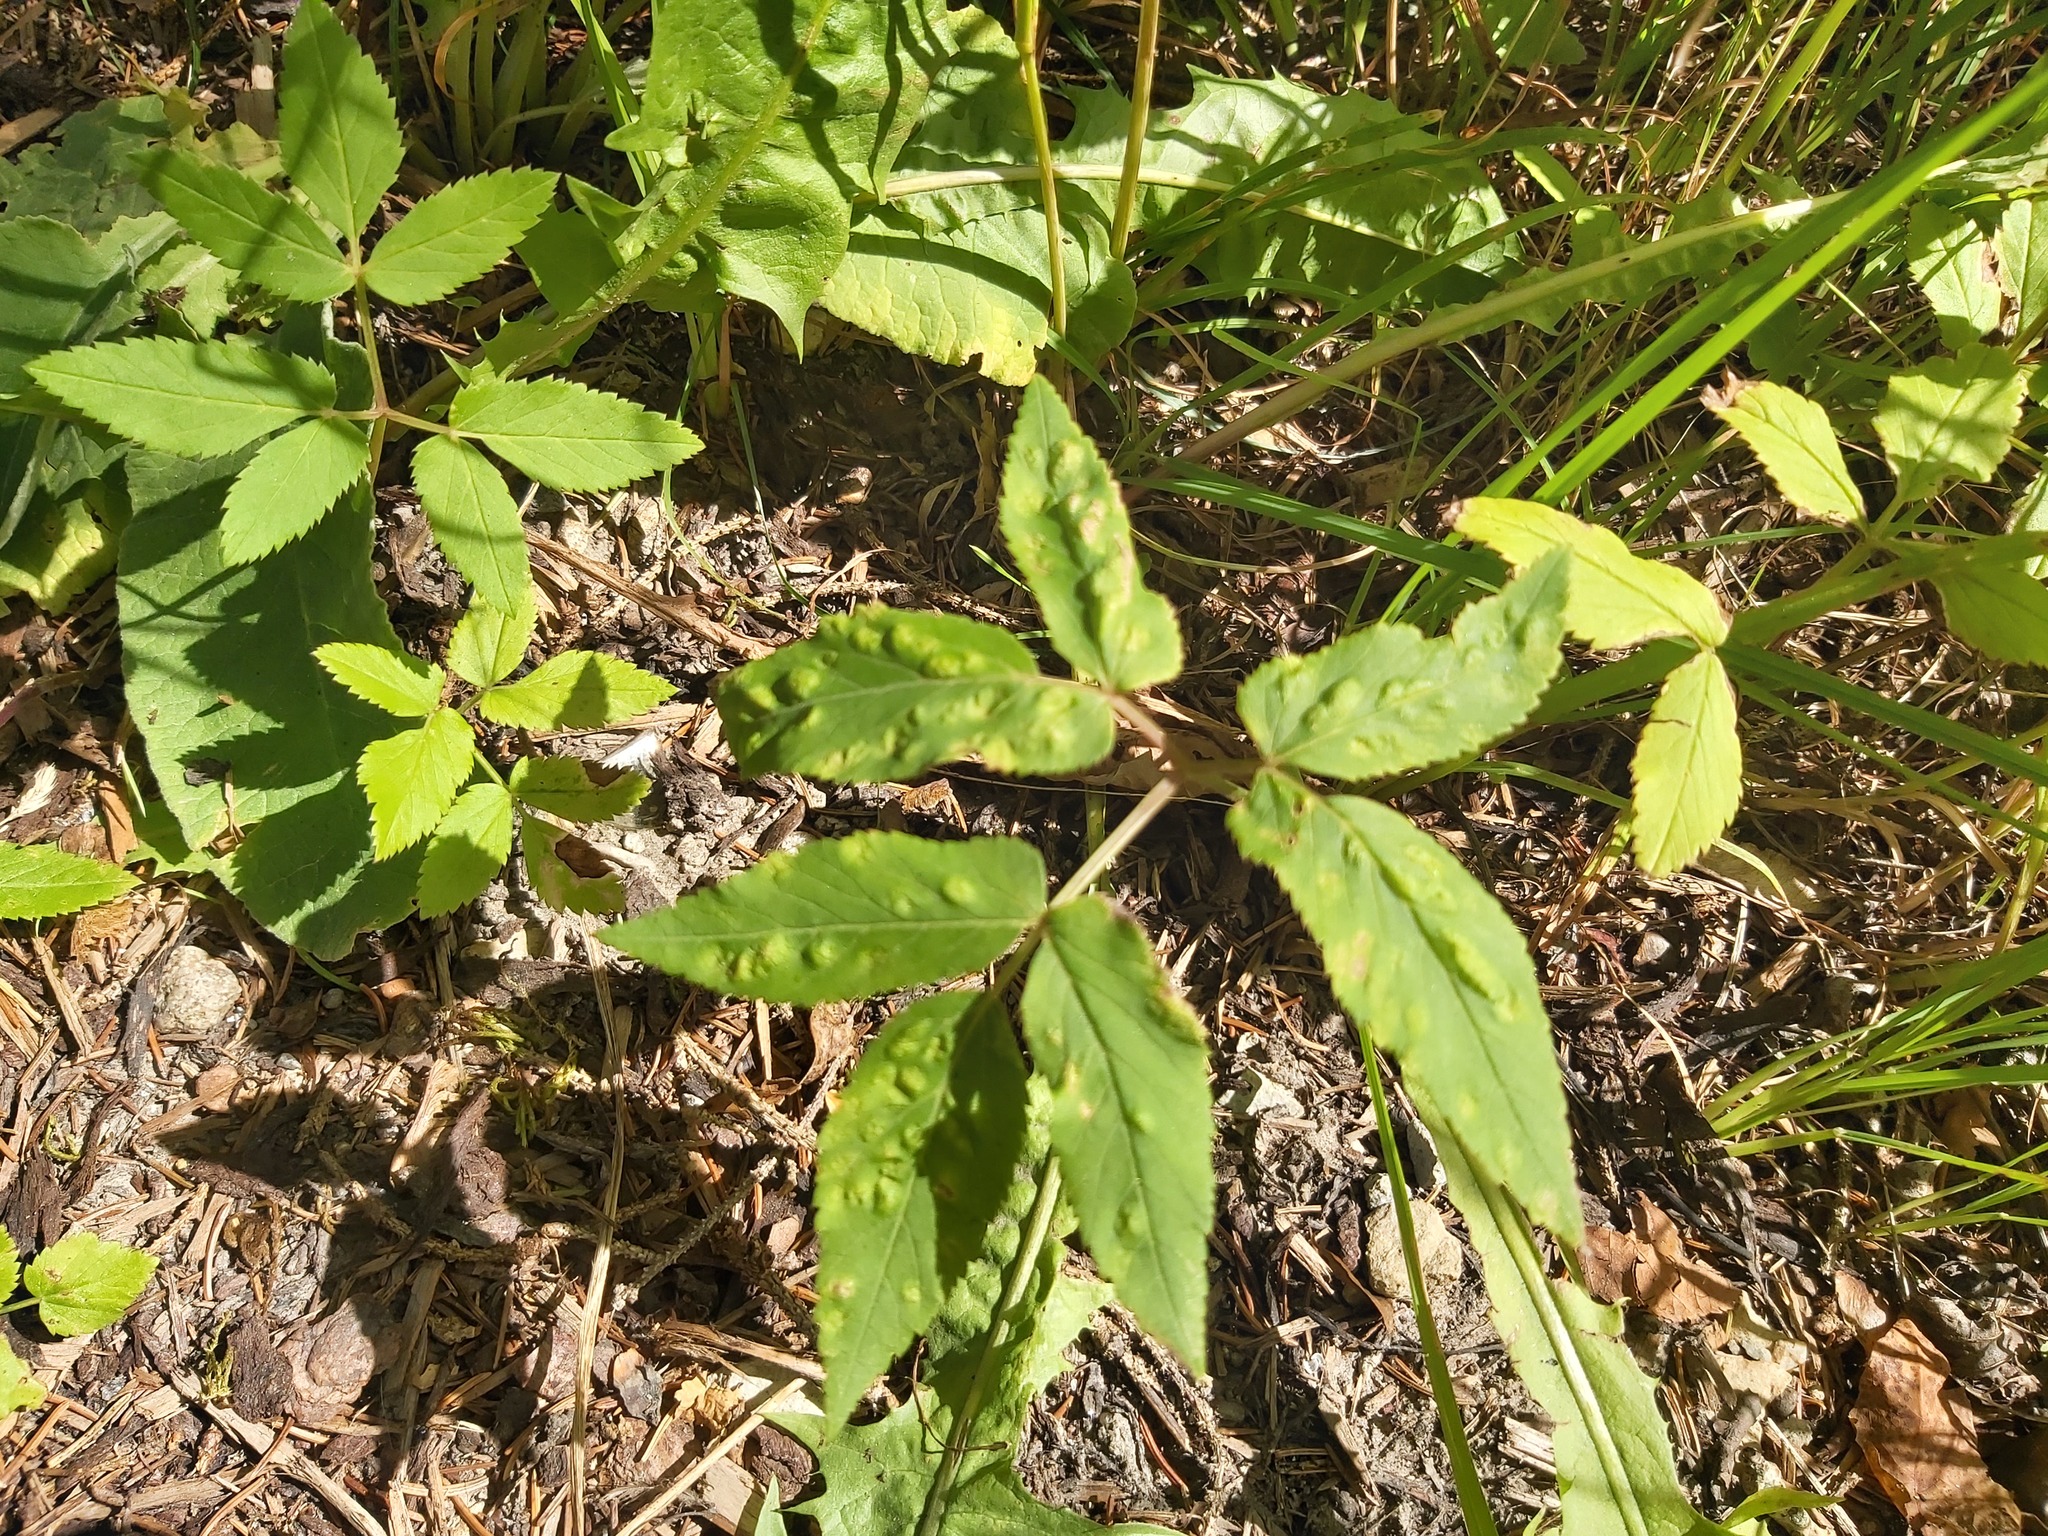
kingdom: Animalia
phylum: Arthropoda
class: Insecta
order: Hemiptera
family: Triozidae
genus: Trioza
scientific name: Trioza flavipennis
